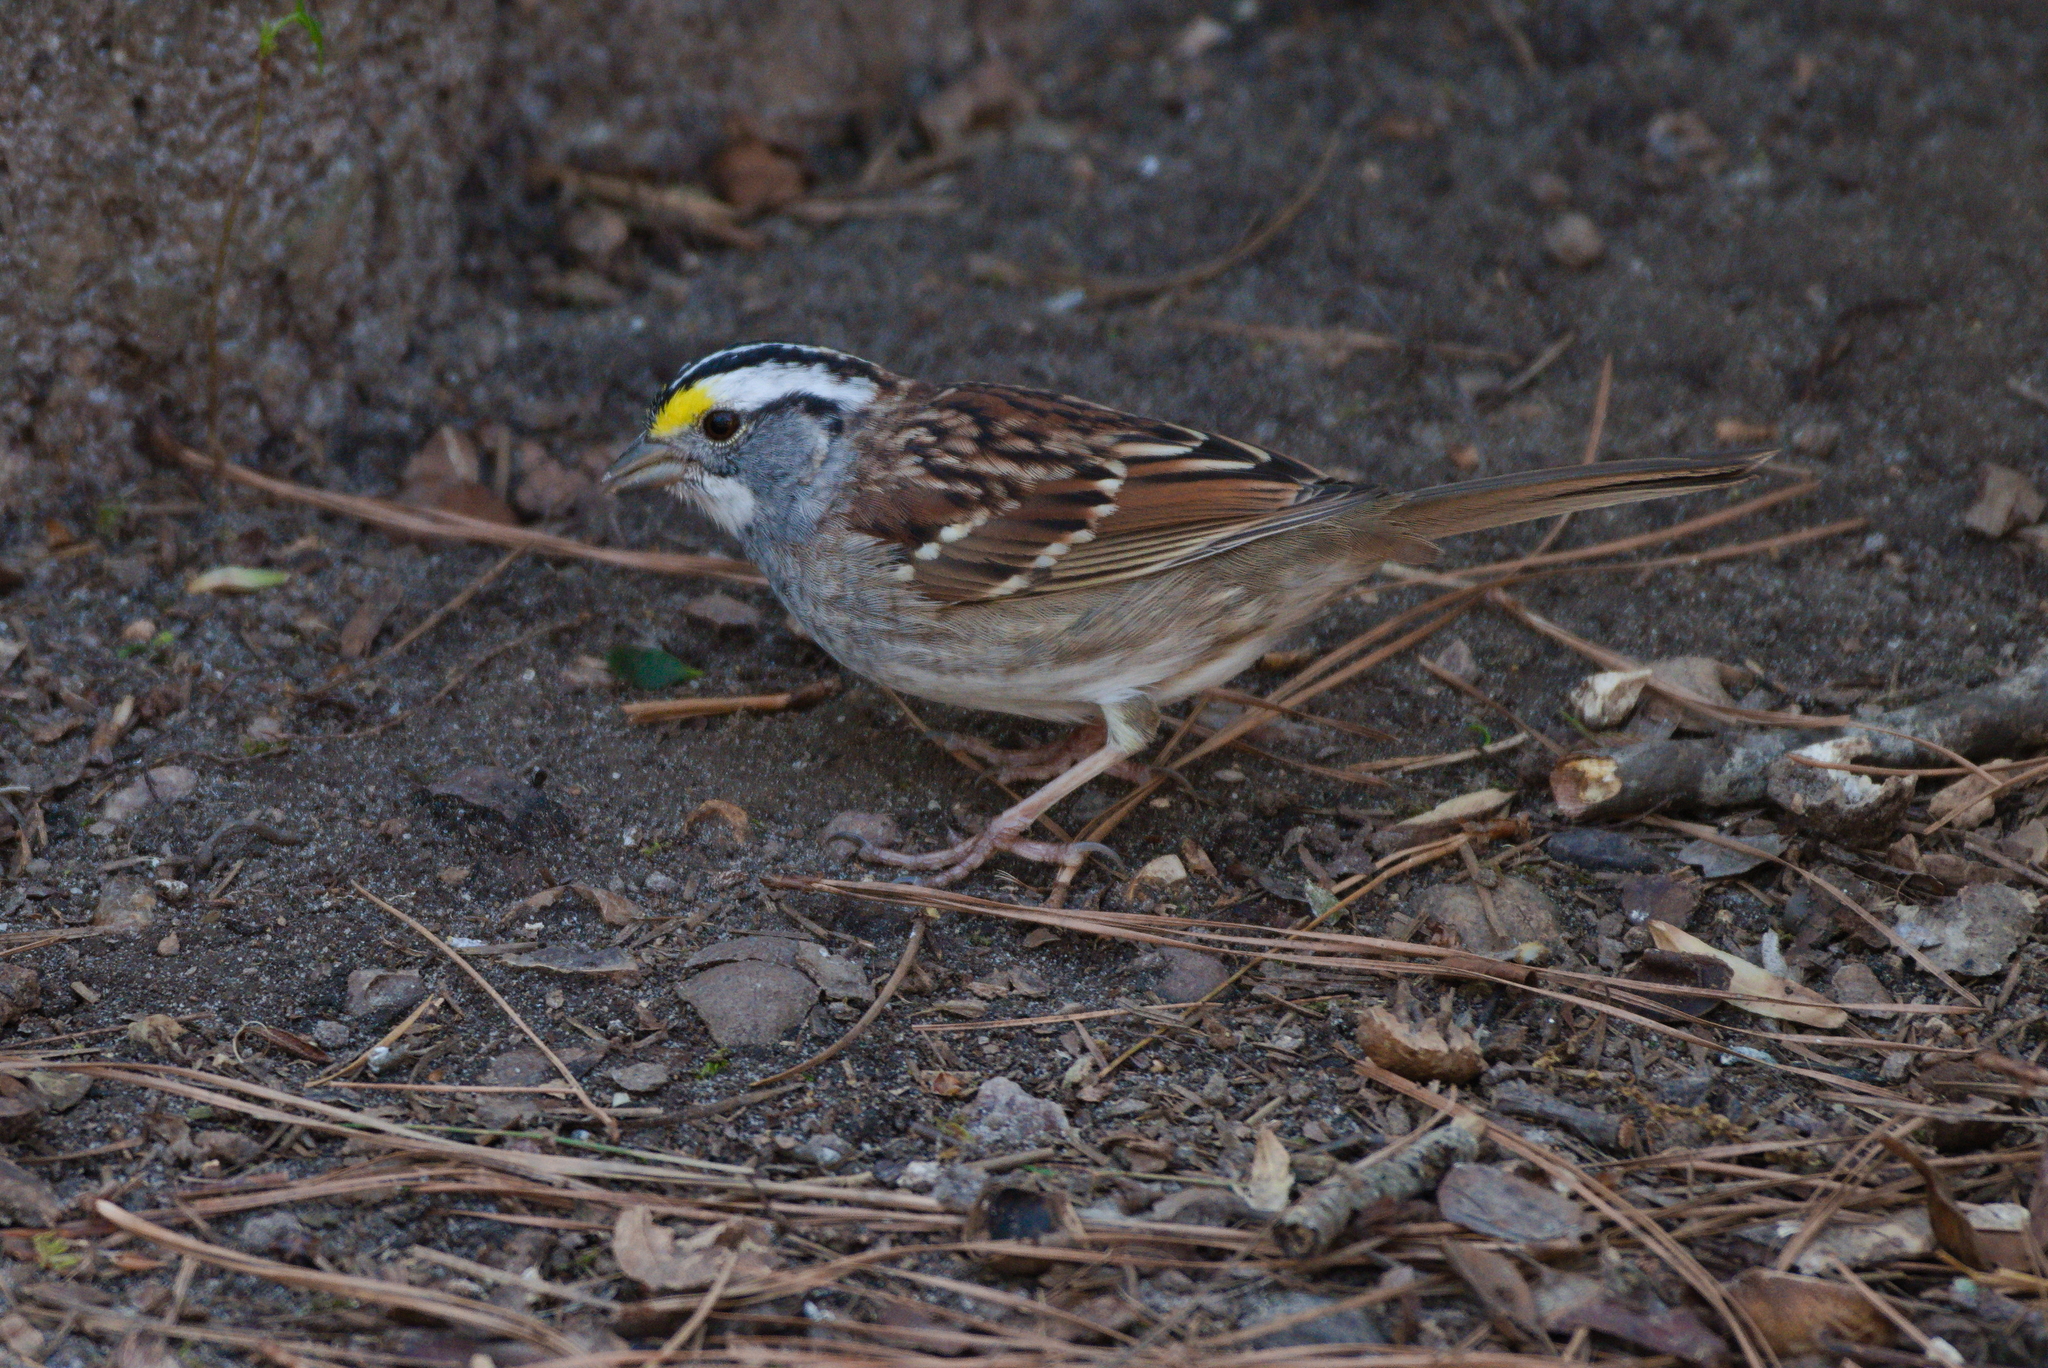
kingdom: Animalia
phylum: Chordata
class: Aves
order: Passeriformes
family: Passerellidae
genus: Zonotrichia
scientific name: Zonotrichia albicollis
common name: White-throated sparrow
